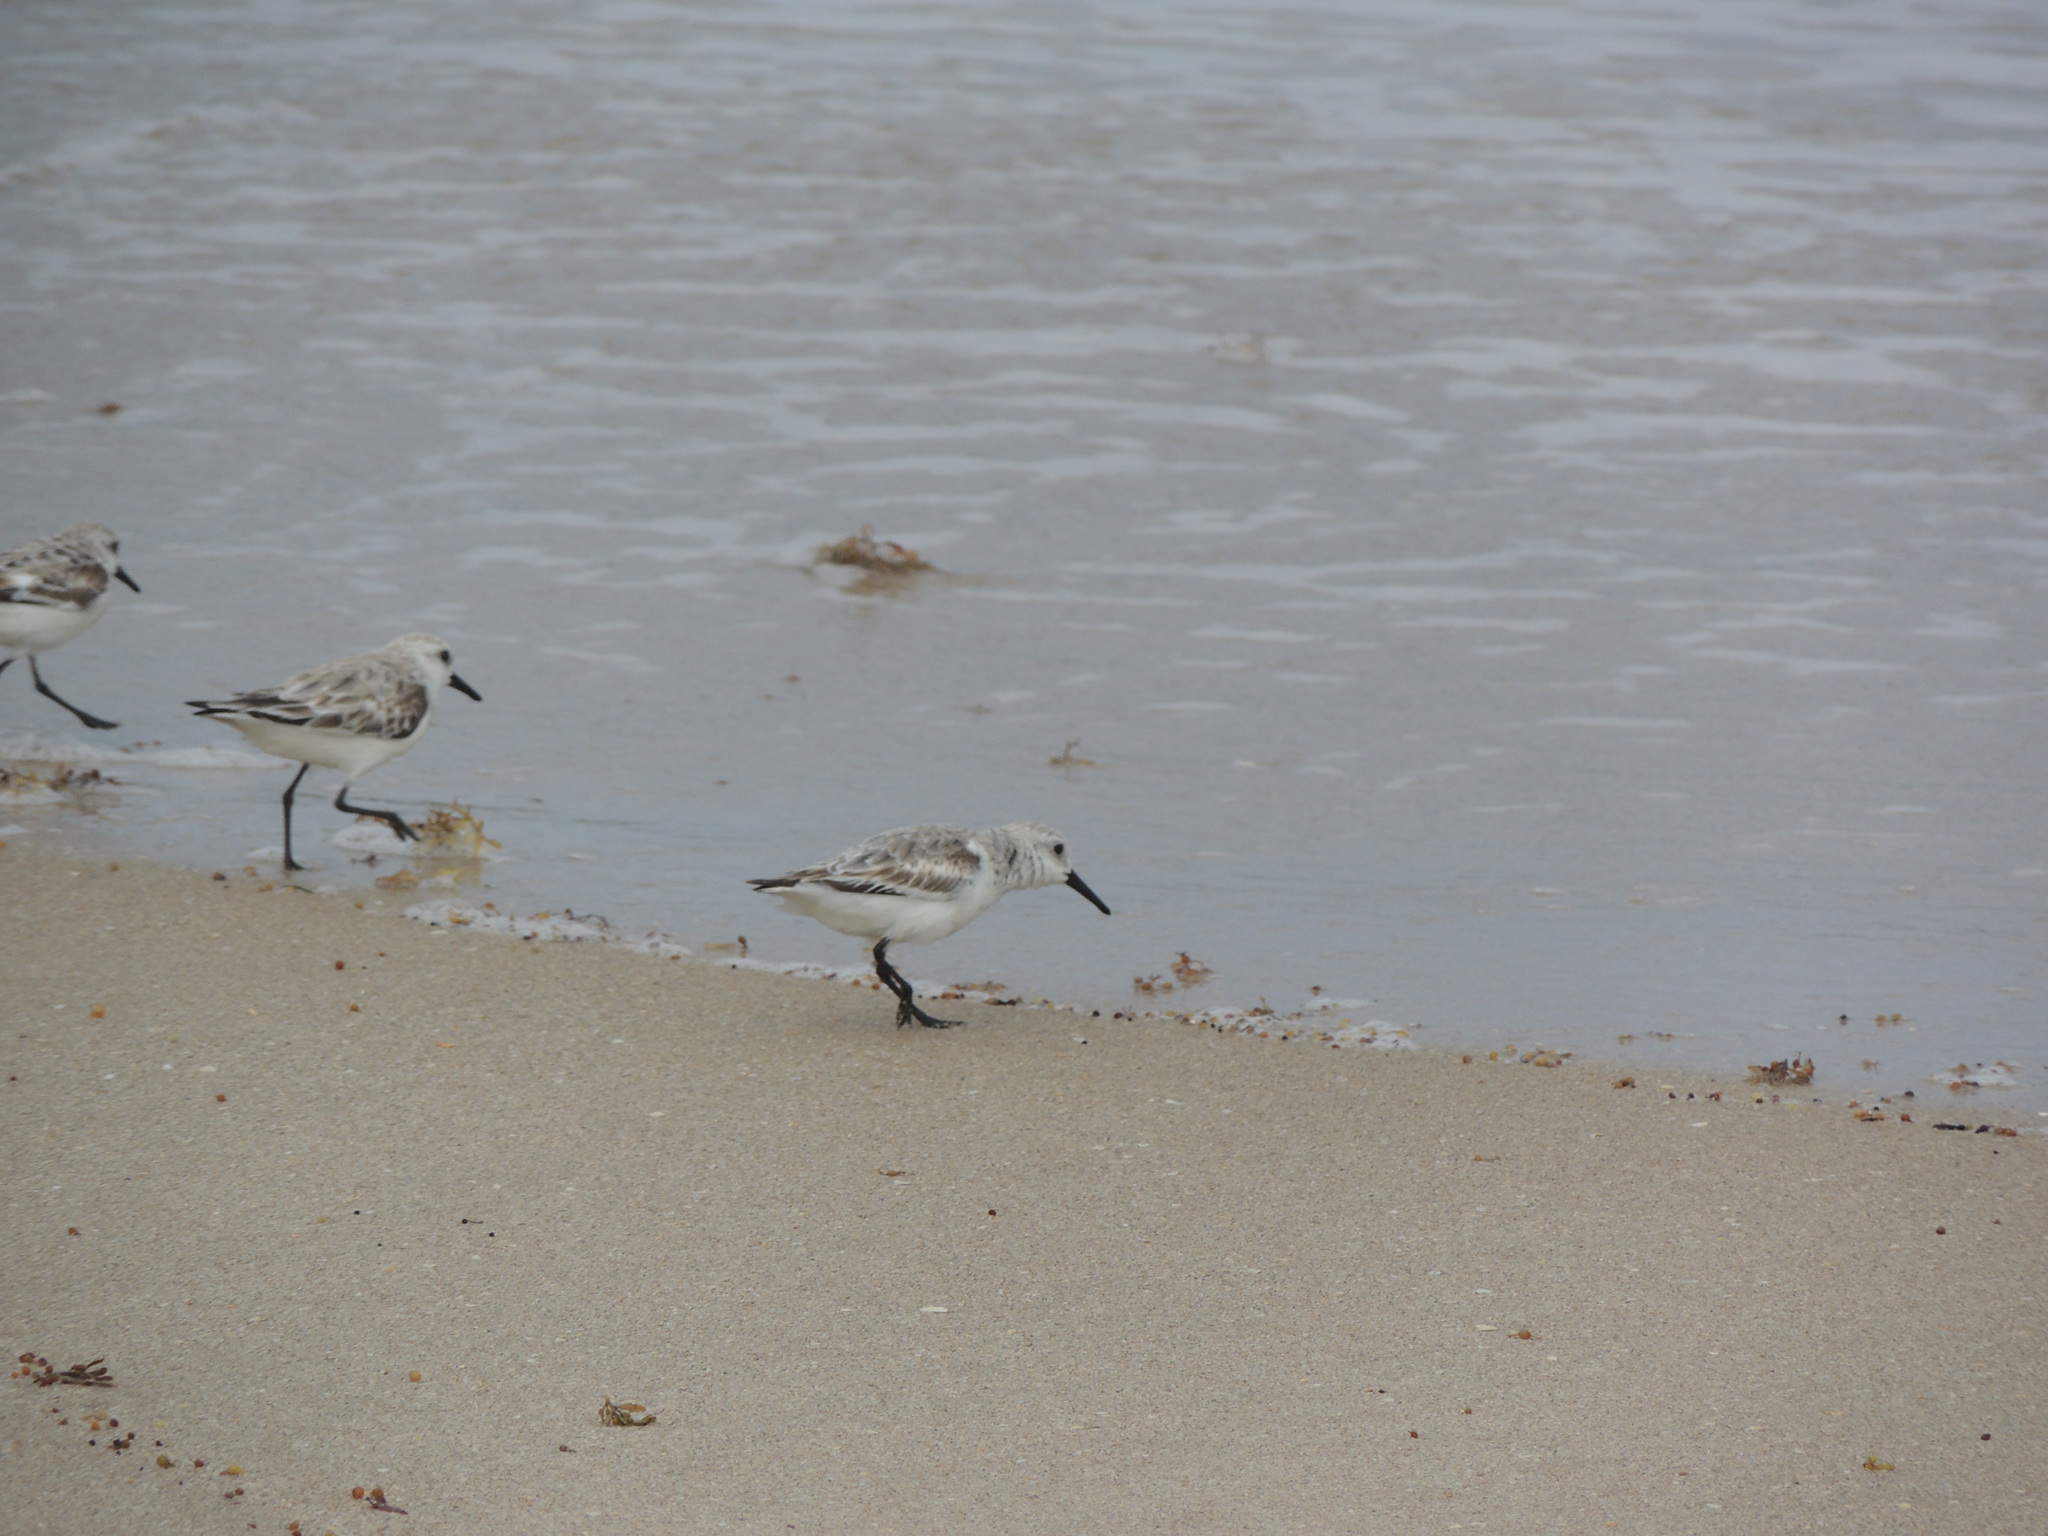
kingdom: Animalia
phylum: Chordata
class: Aves
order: Charadriiformes
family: Scolopacidae
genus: Calidris
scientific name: Calidris alba
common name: Sanderling
